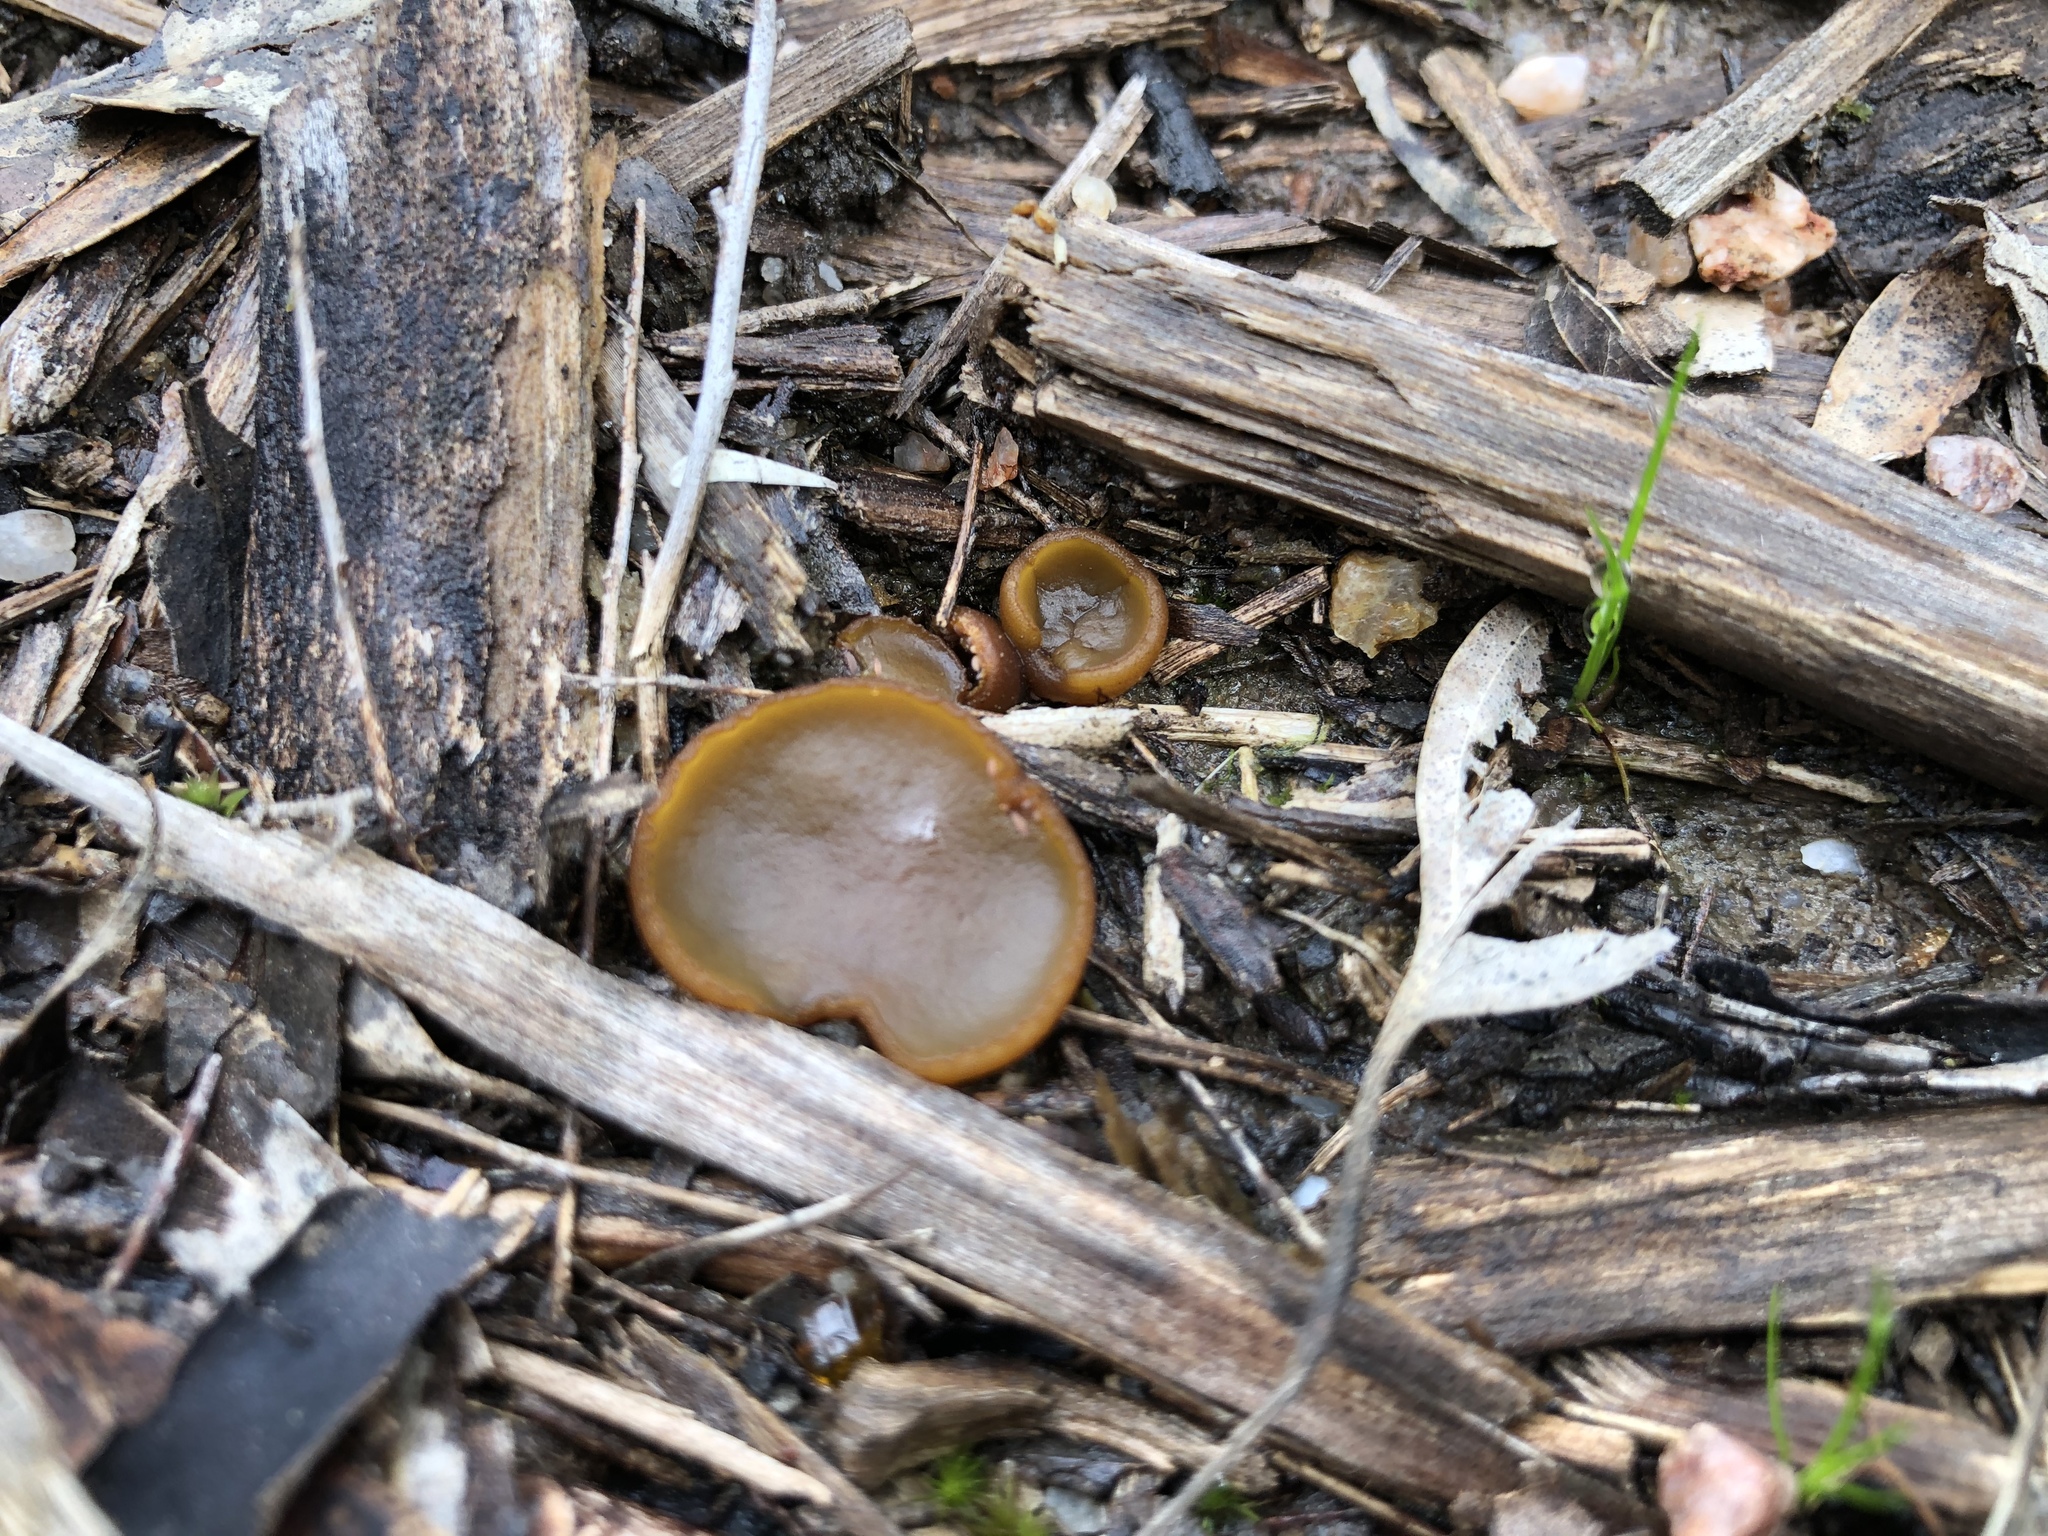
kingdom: Fungi
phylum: Ascomycota
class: Pezizomycetes
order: Pezizales
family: Pyronemataceae
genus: Aleurina
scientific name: Aleurina ferruginea
